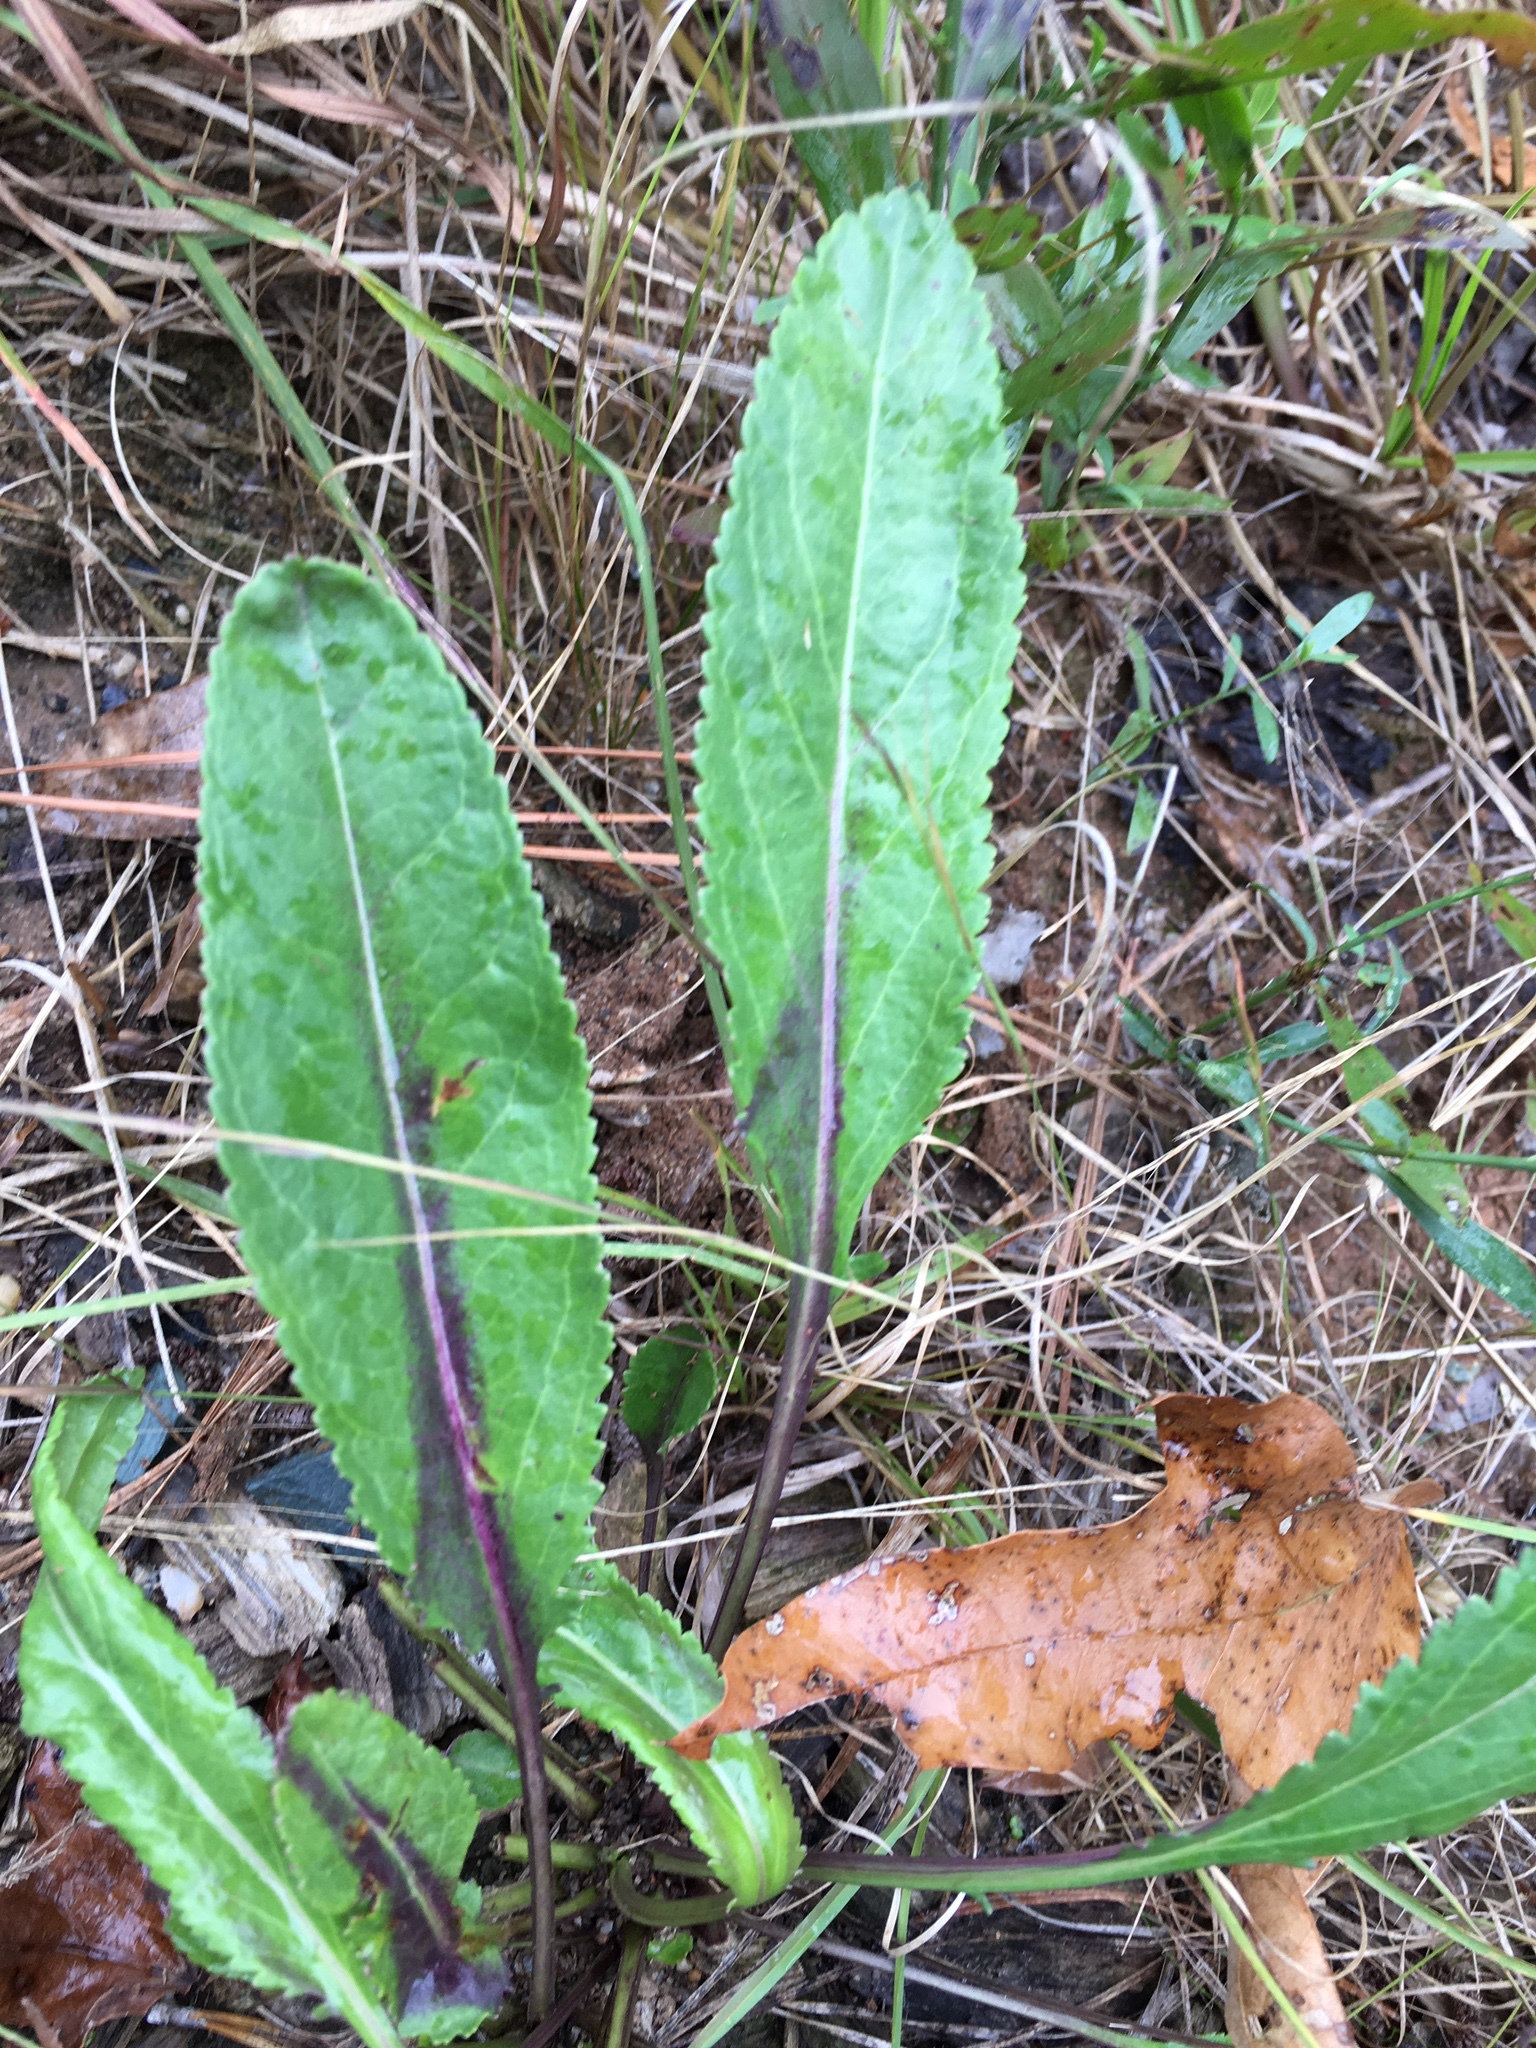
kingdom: Plantae
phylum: Tracheophyta
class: Magnoliopsida
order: Asterales
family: Asteraceae
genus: Packera
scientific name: Packera anonyma
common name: Small ragwort
